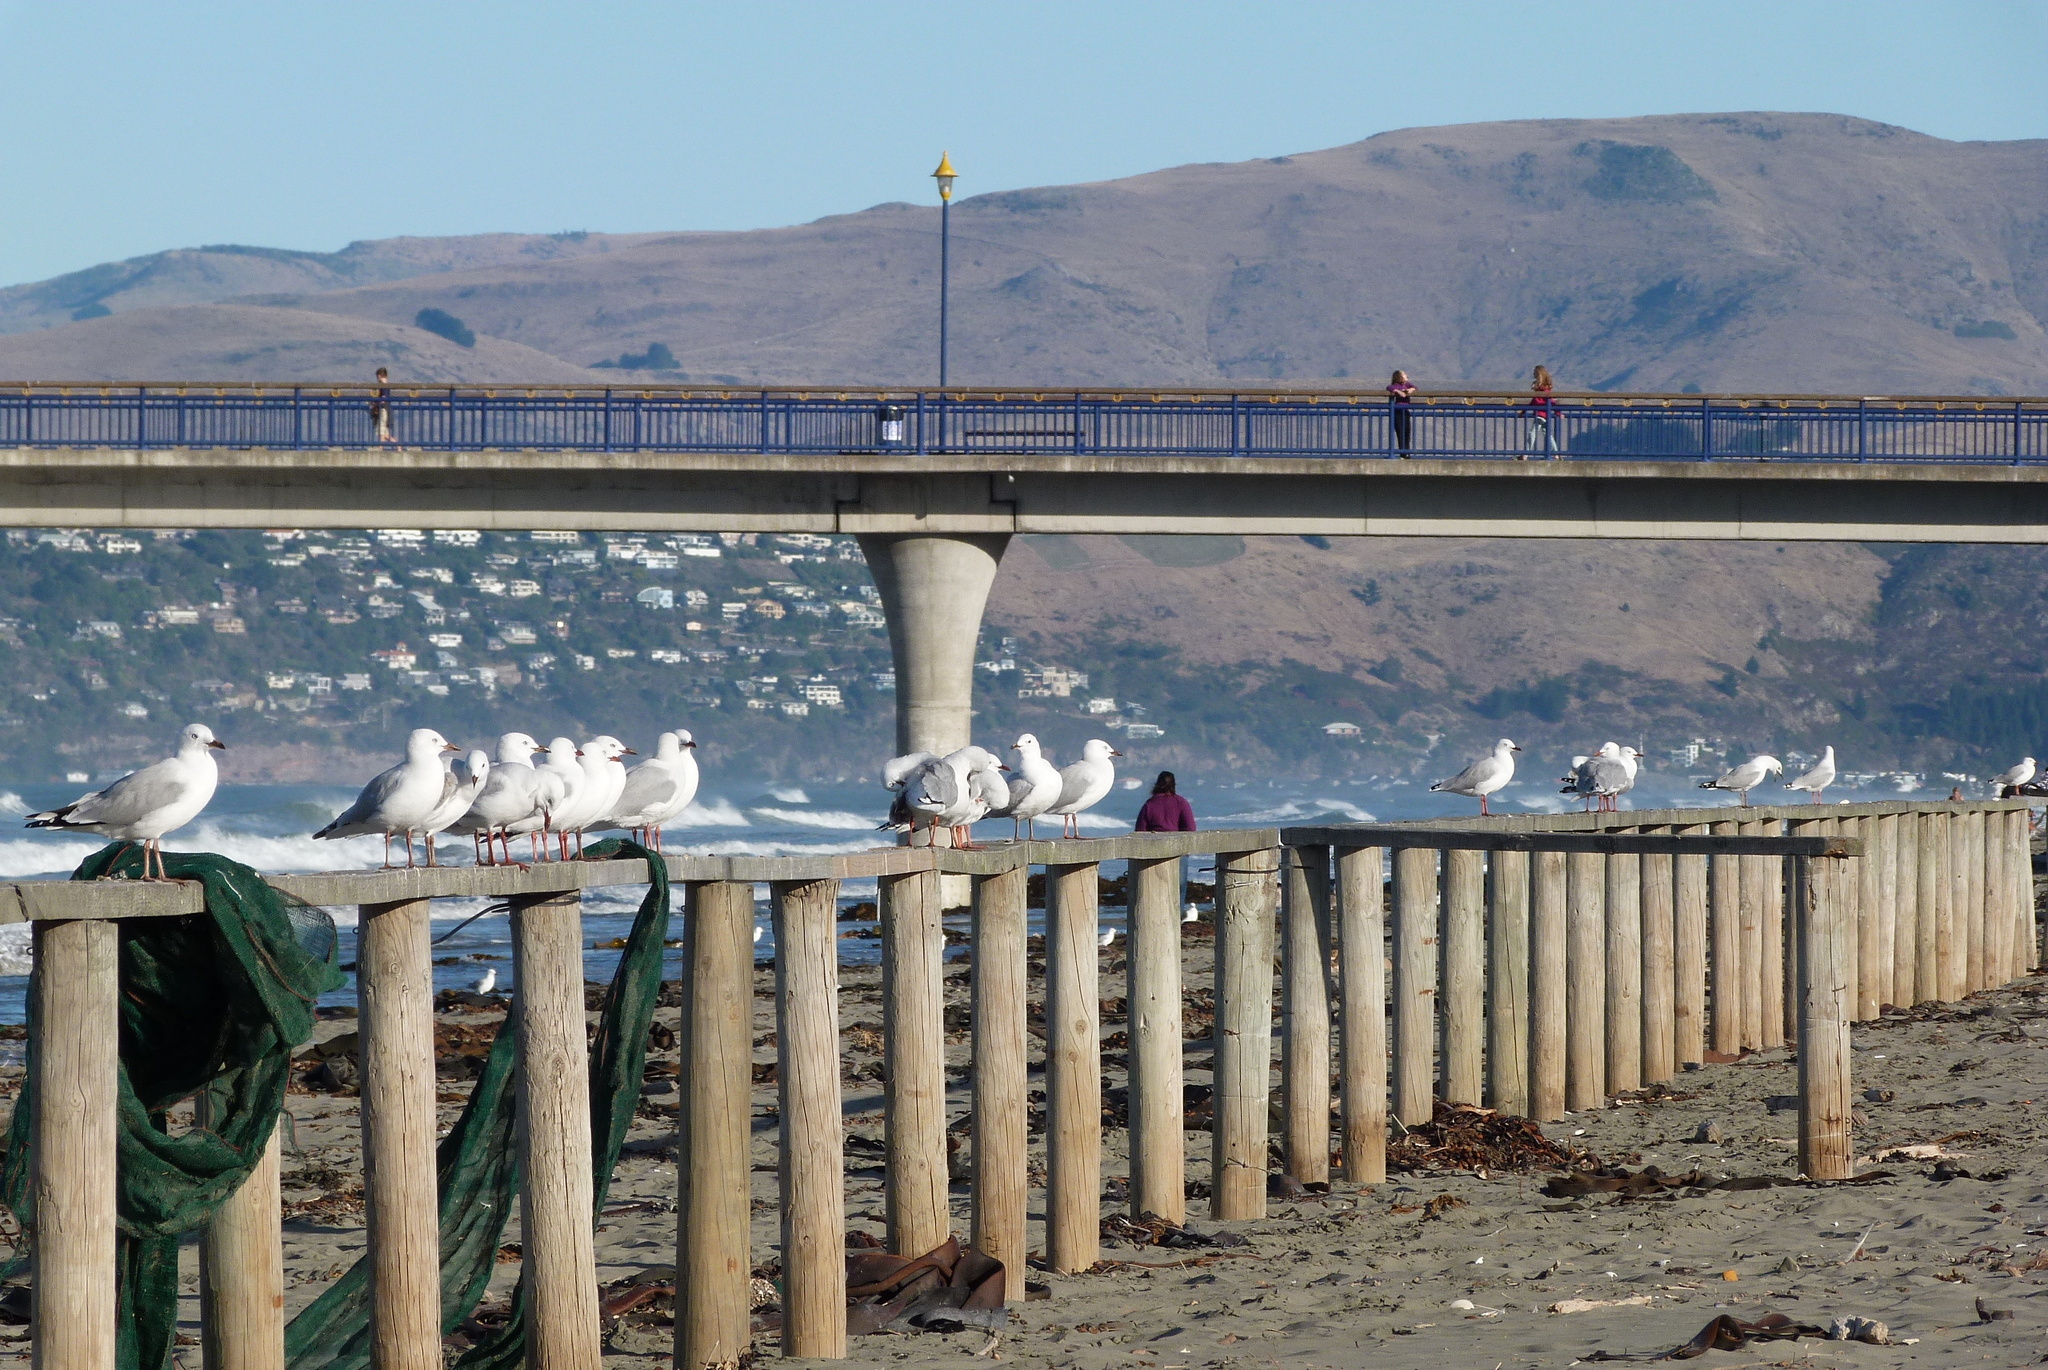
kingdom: Animalia
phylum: Chordata
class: Aves
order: Charadriiformes
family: Laridae
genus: Chroicocephalus
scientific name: Chroicocephalus novaehollandiae
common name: Silver gull
